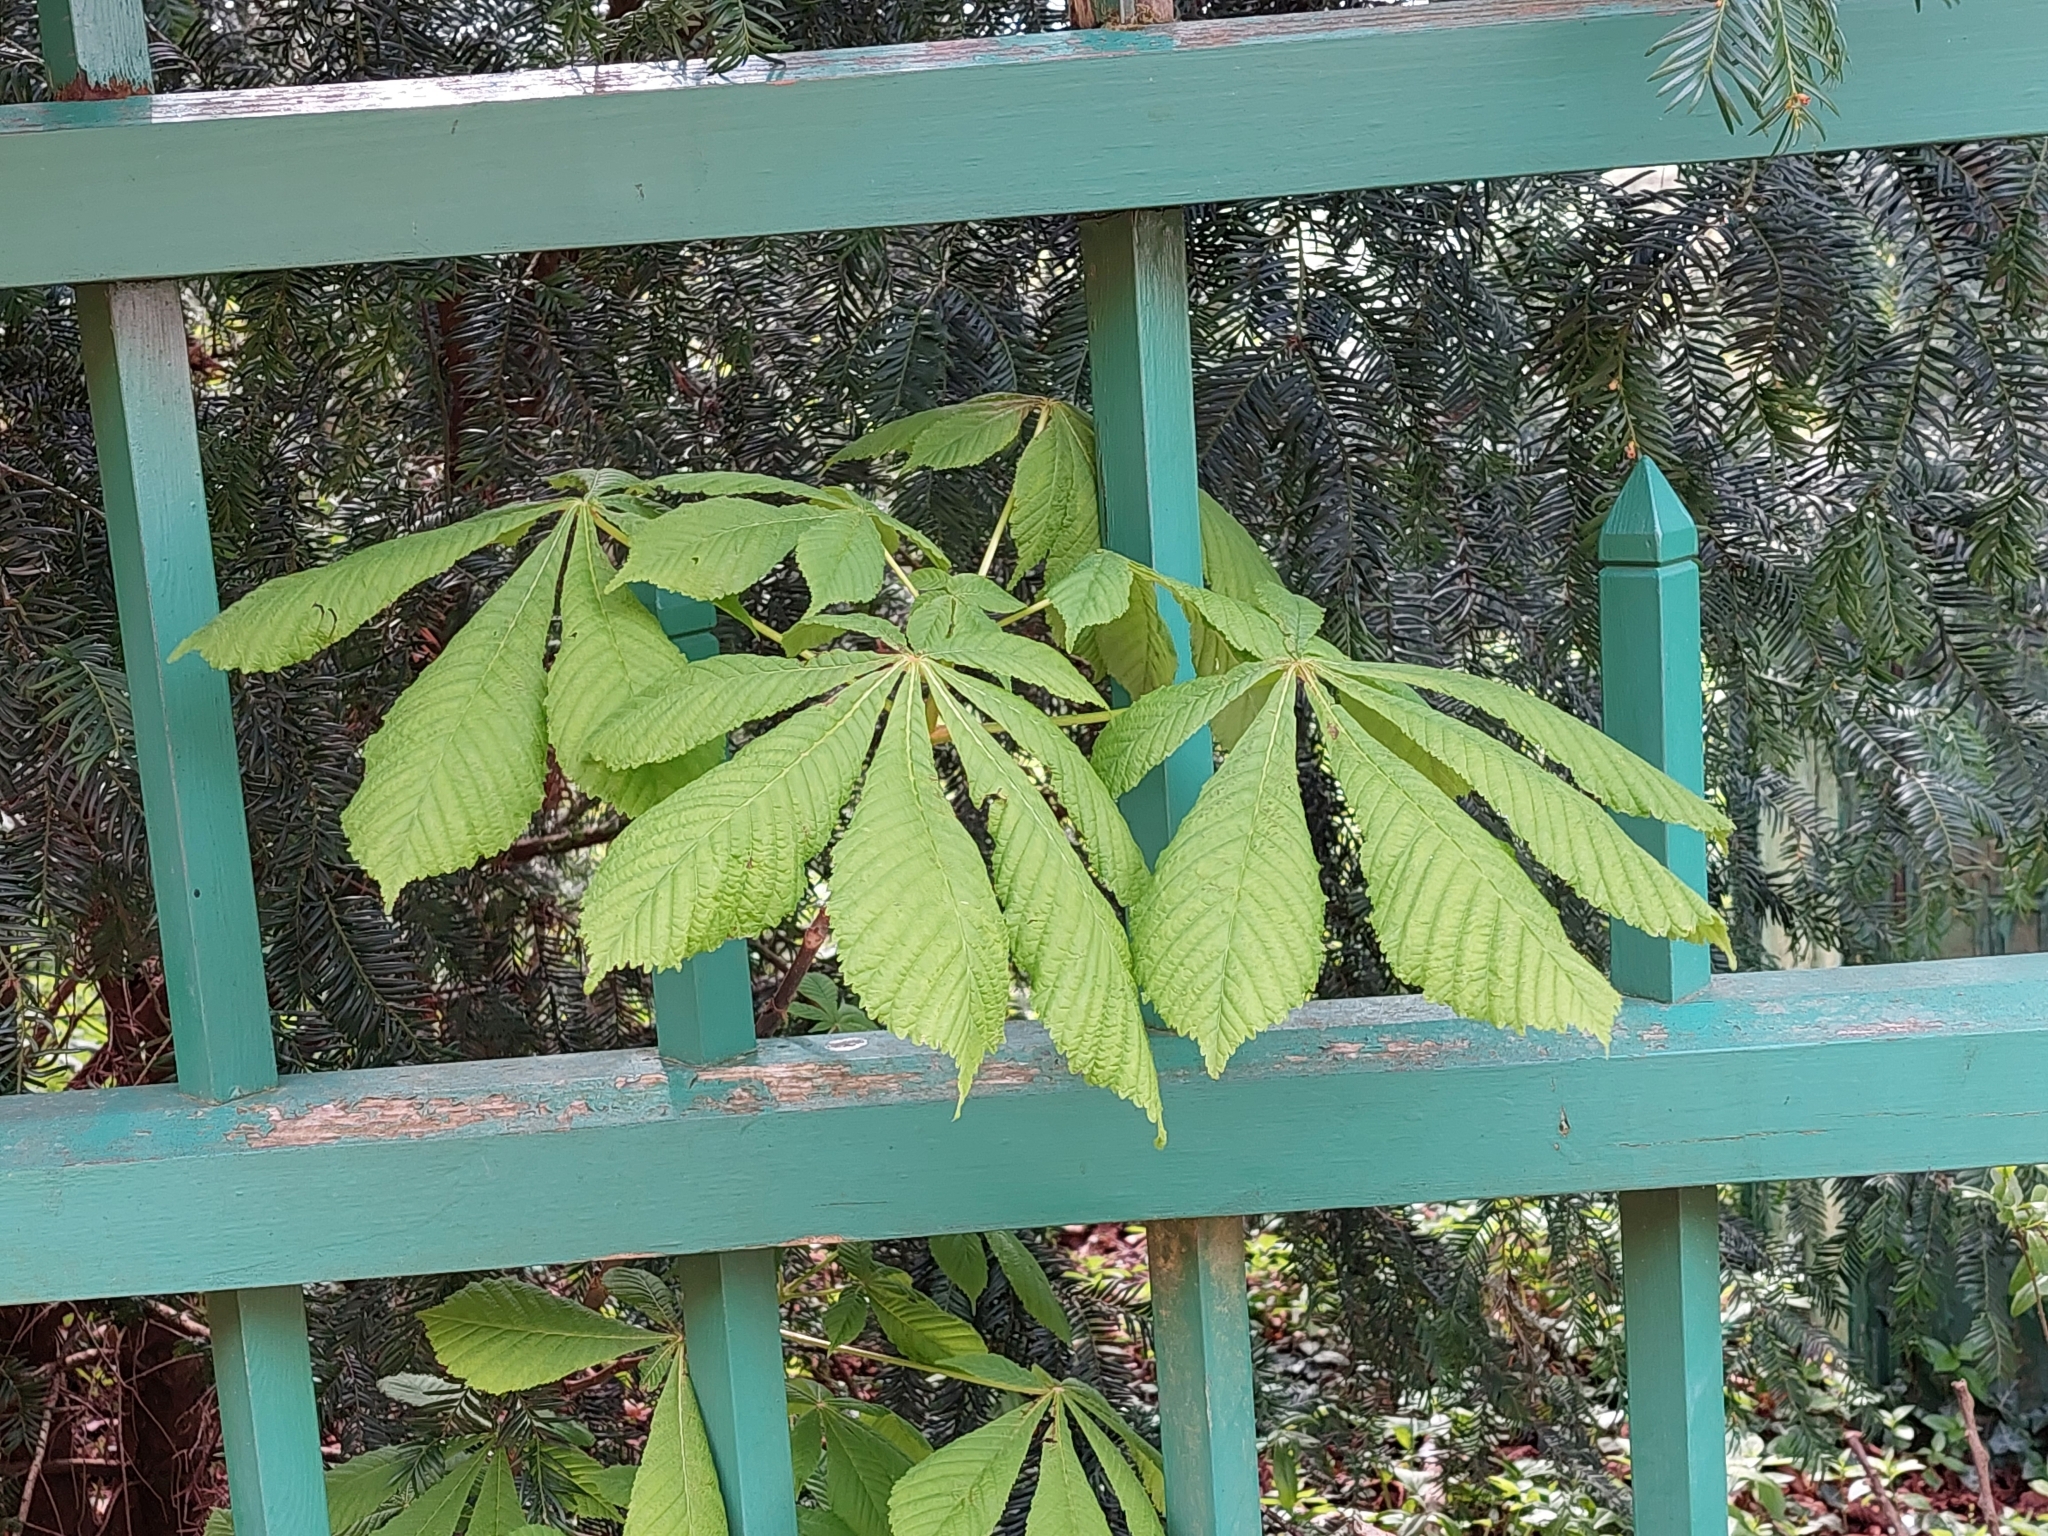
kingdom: Plantae
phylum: Tracheophyta
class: Magnoliopsida
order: Sapindales
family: Sapindaceae
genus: Aesculus
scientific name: Aesculus hippocastanum
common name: Horse-chestnut
